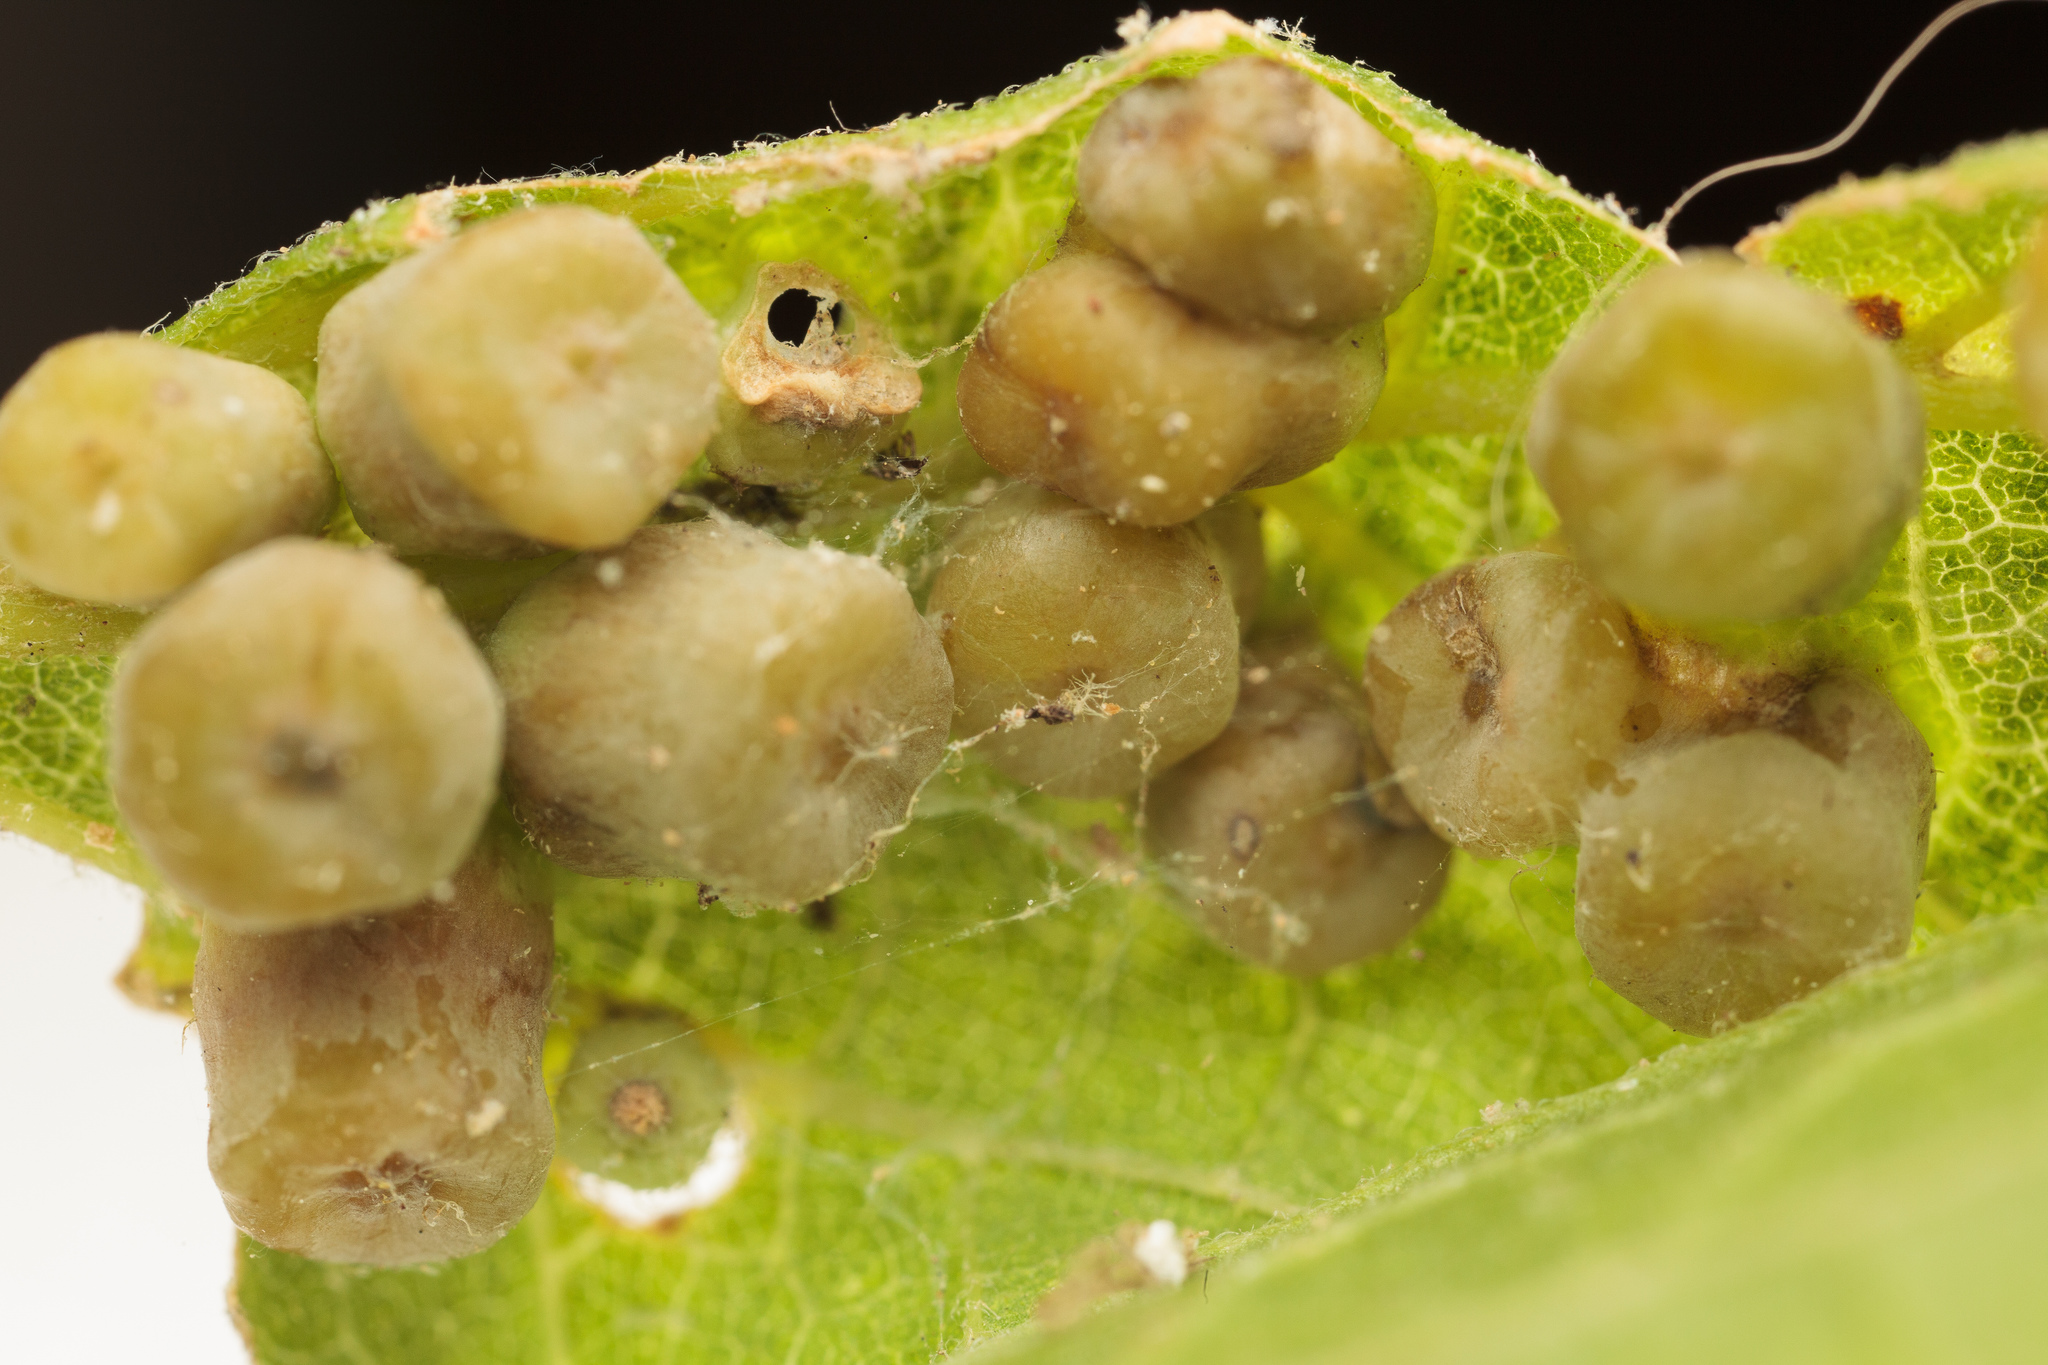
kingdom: Animalia
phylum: Arthropoda
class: Insecta
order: Hemiptera
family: Aphalaridae
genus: Pachypsylla
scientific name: Pachypsylla celtidismamma
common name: Hackberry nipplegall psyllid
